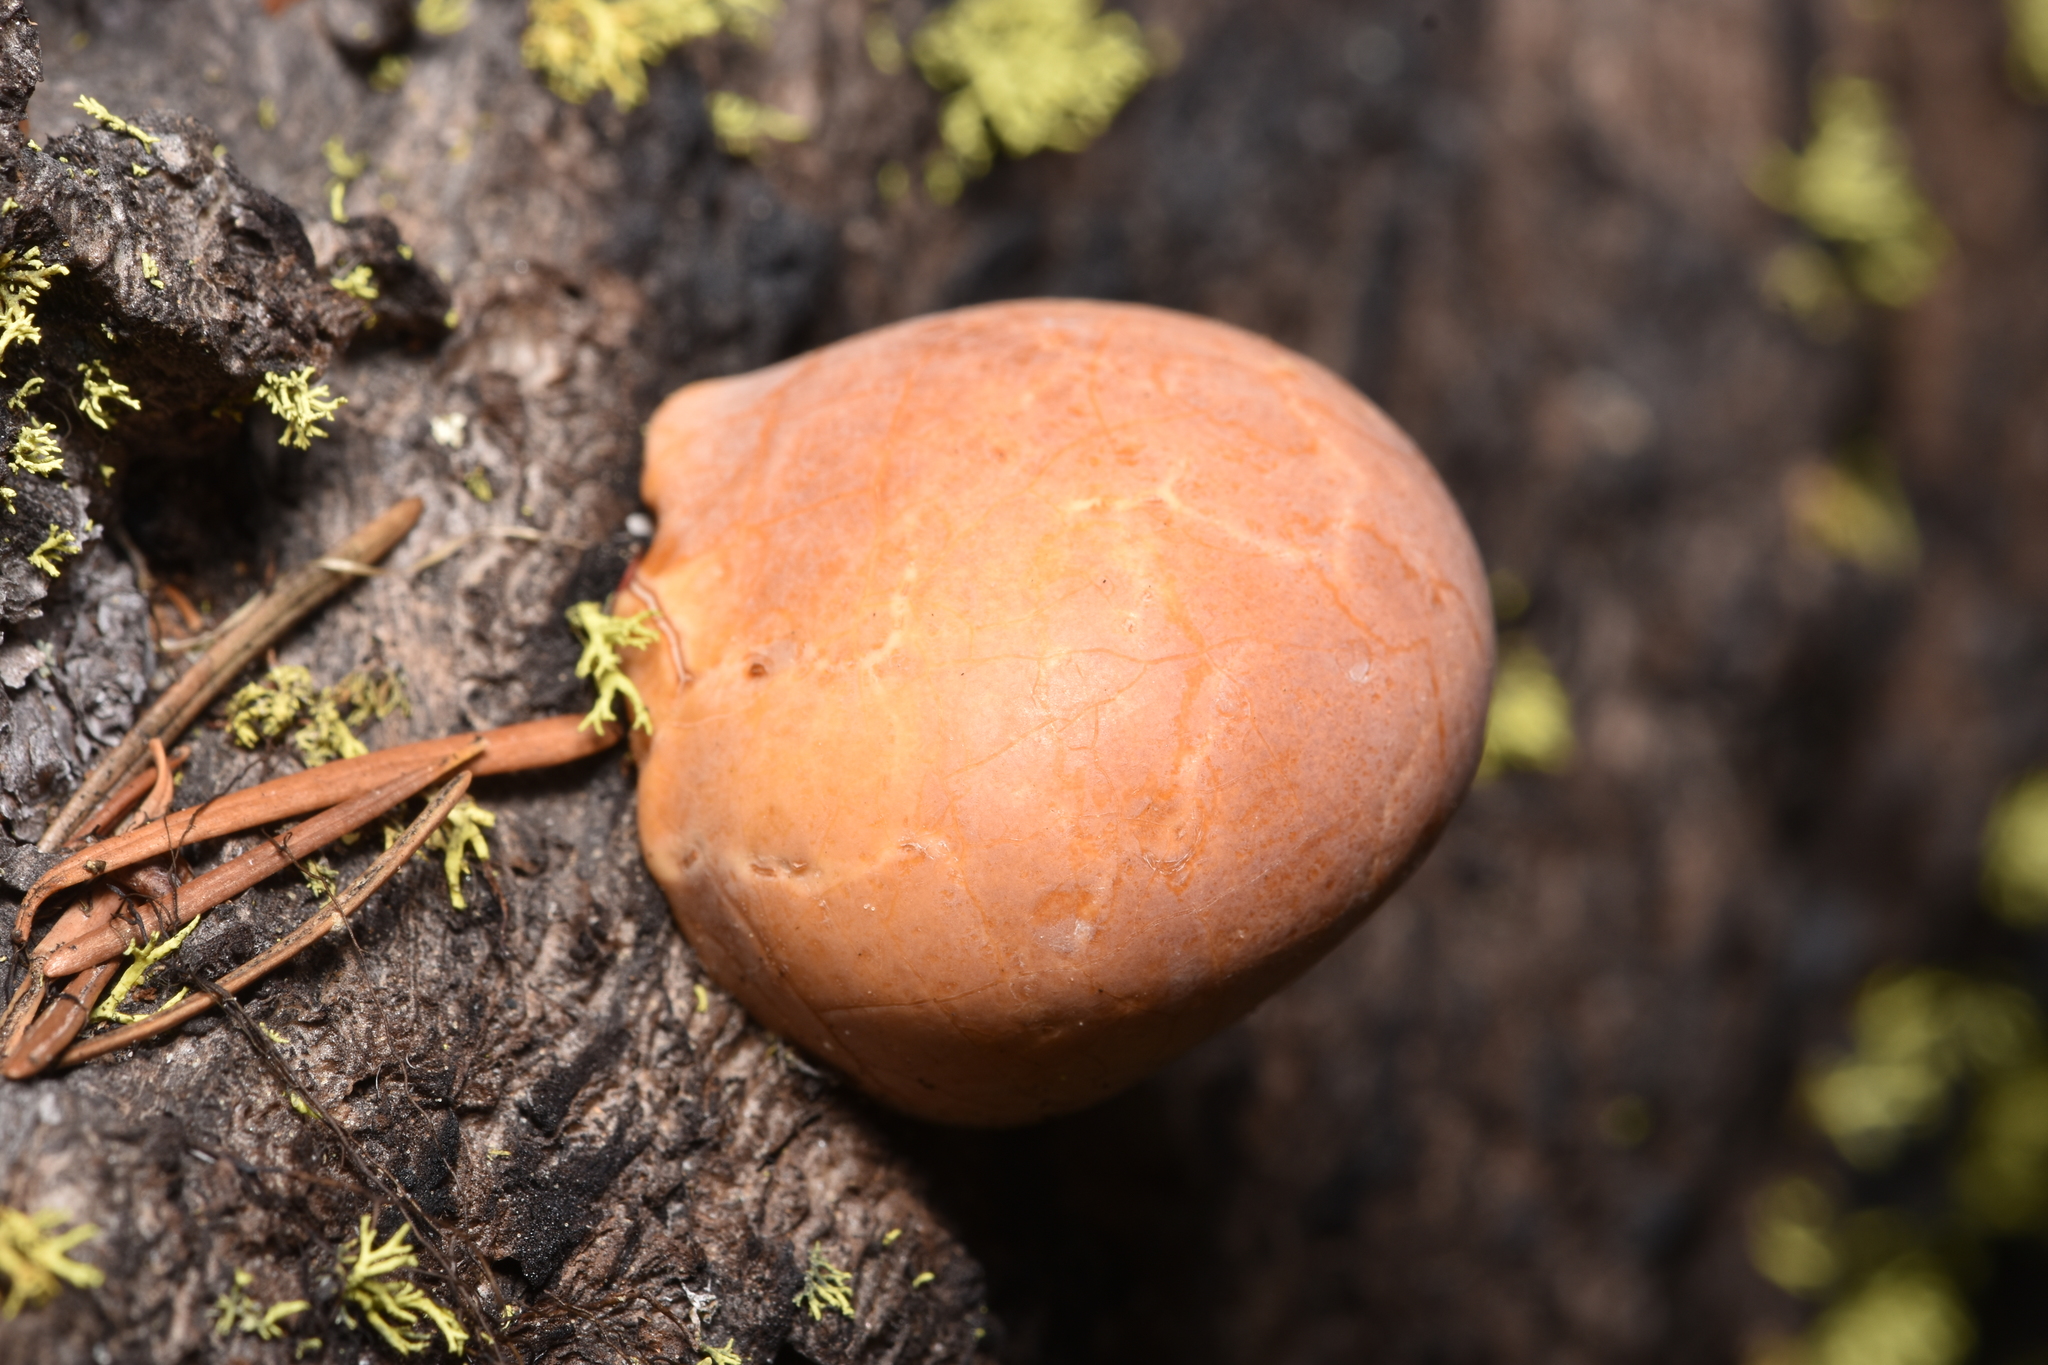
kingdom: Fungi
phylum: Basidiomycota
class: Agaricomycetes
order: Polyporales
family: Polyporaceae
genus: Cryptoporus
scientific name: Cryptoporus volvatus
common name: Veiled polypore
